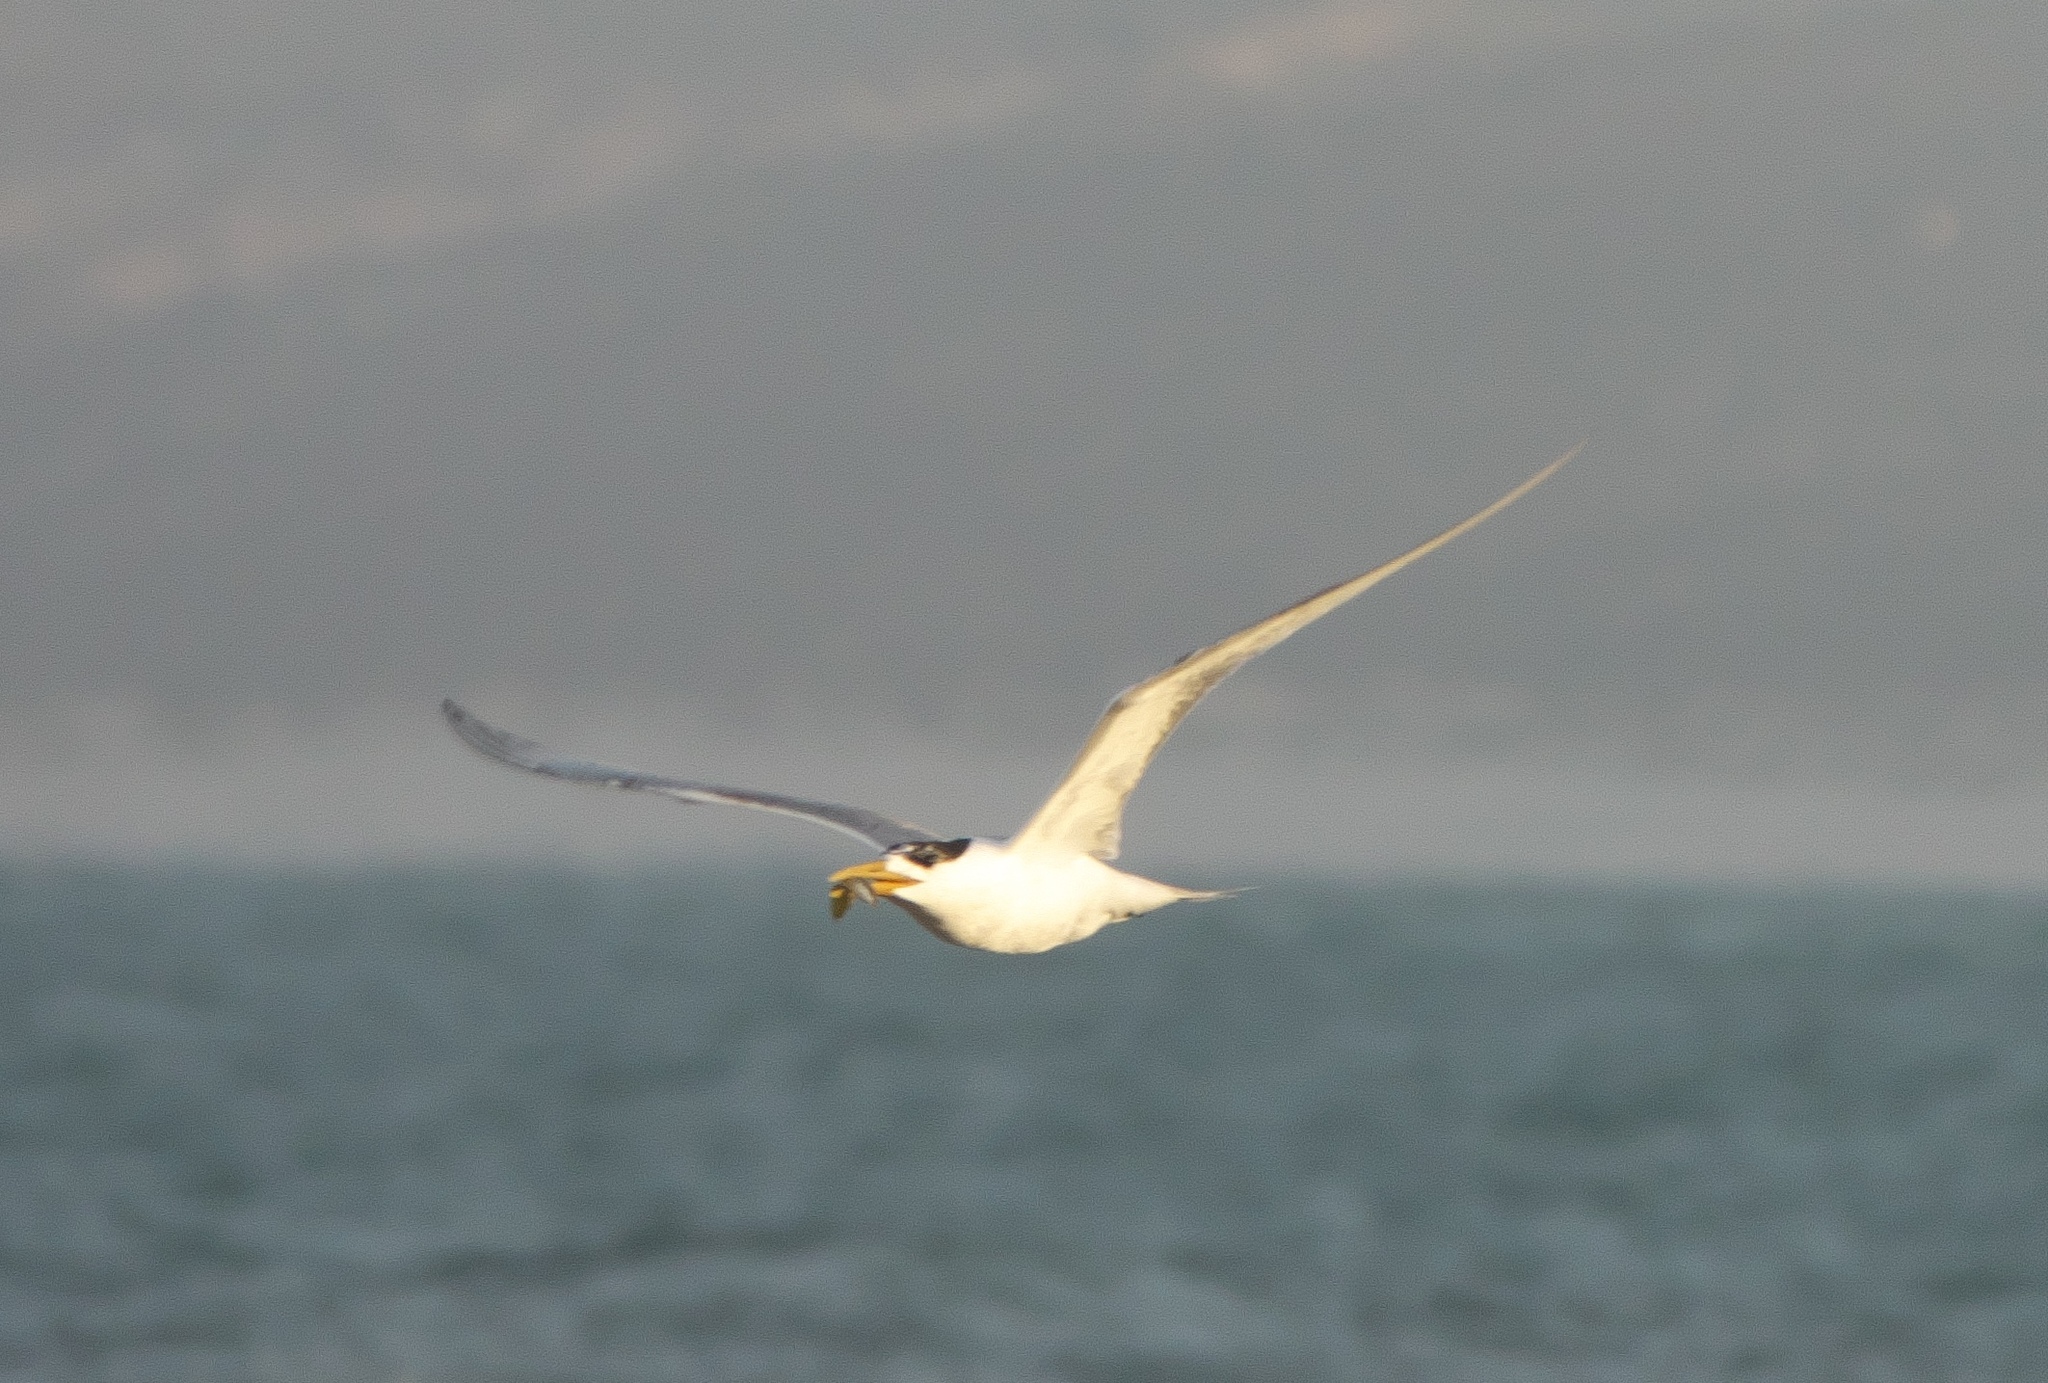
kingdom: Animalia
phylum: Chordata
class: Aves
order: Charadriiformes
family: Laridae
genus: Thalasseus
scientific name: Thalasseus bergii
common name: Greater crested tern
